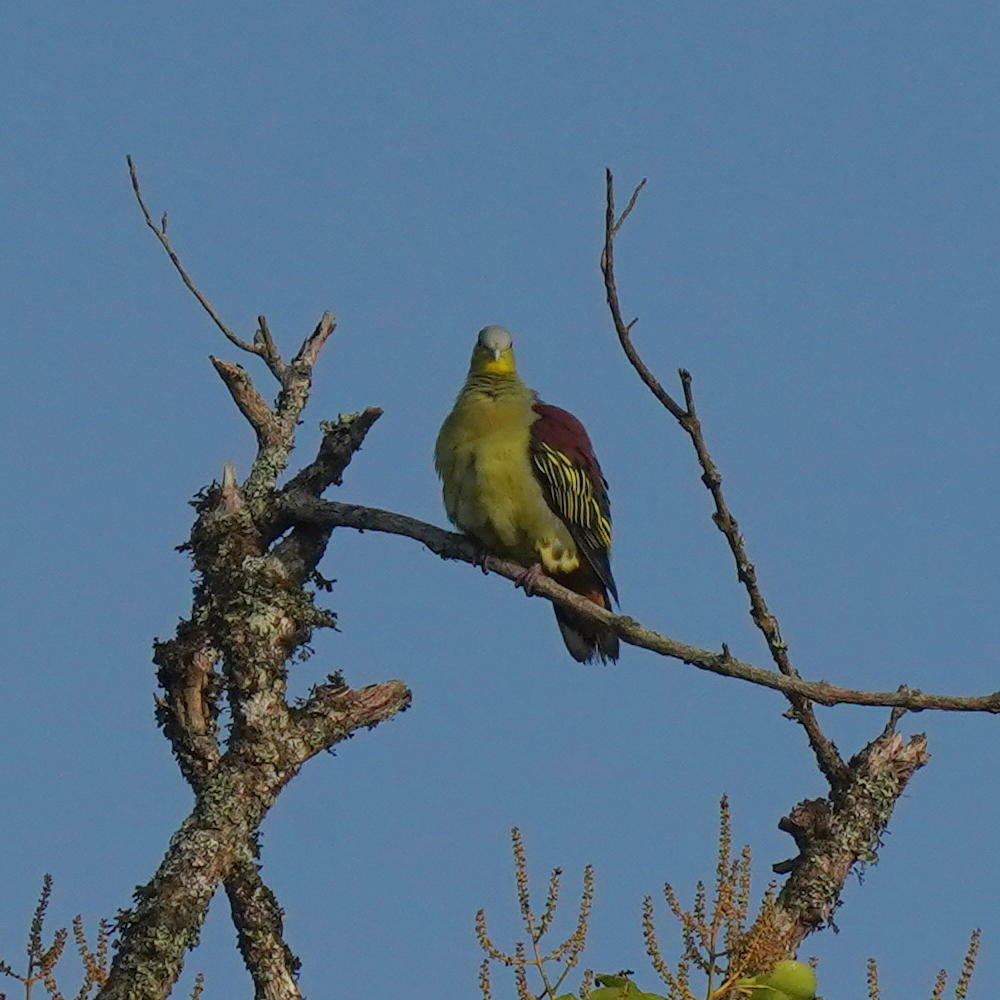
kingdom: Animalia
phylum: Chordata
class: Aves
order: Columbiformes
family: Columbidae
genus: Treron
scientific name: Treron affinis
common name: Grey-fronted green pigeon
